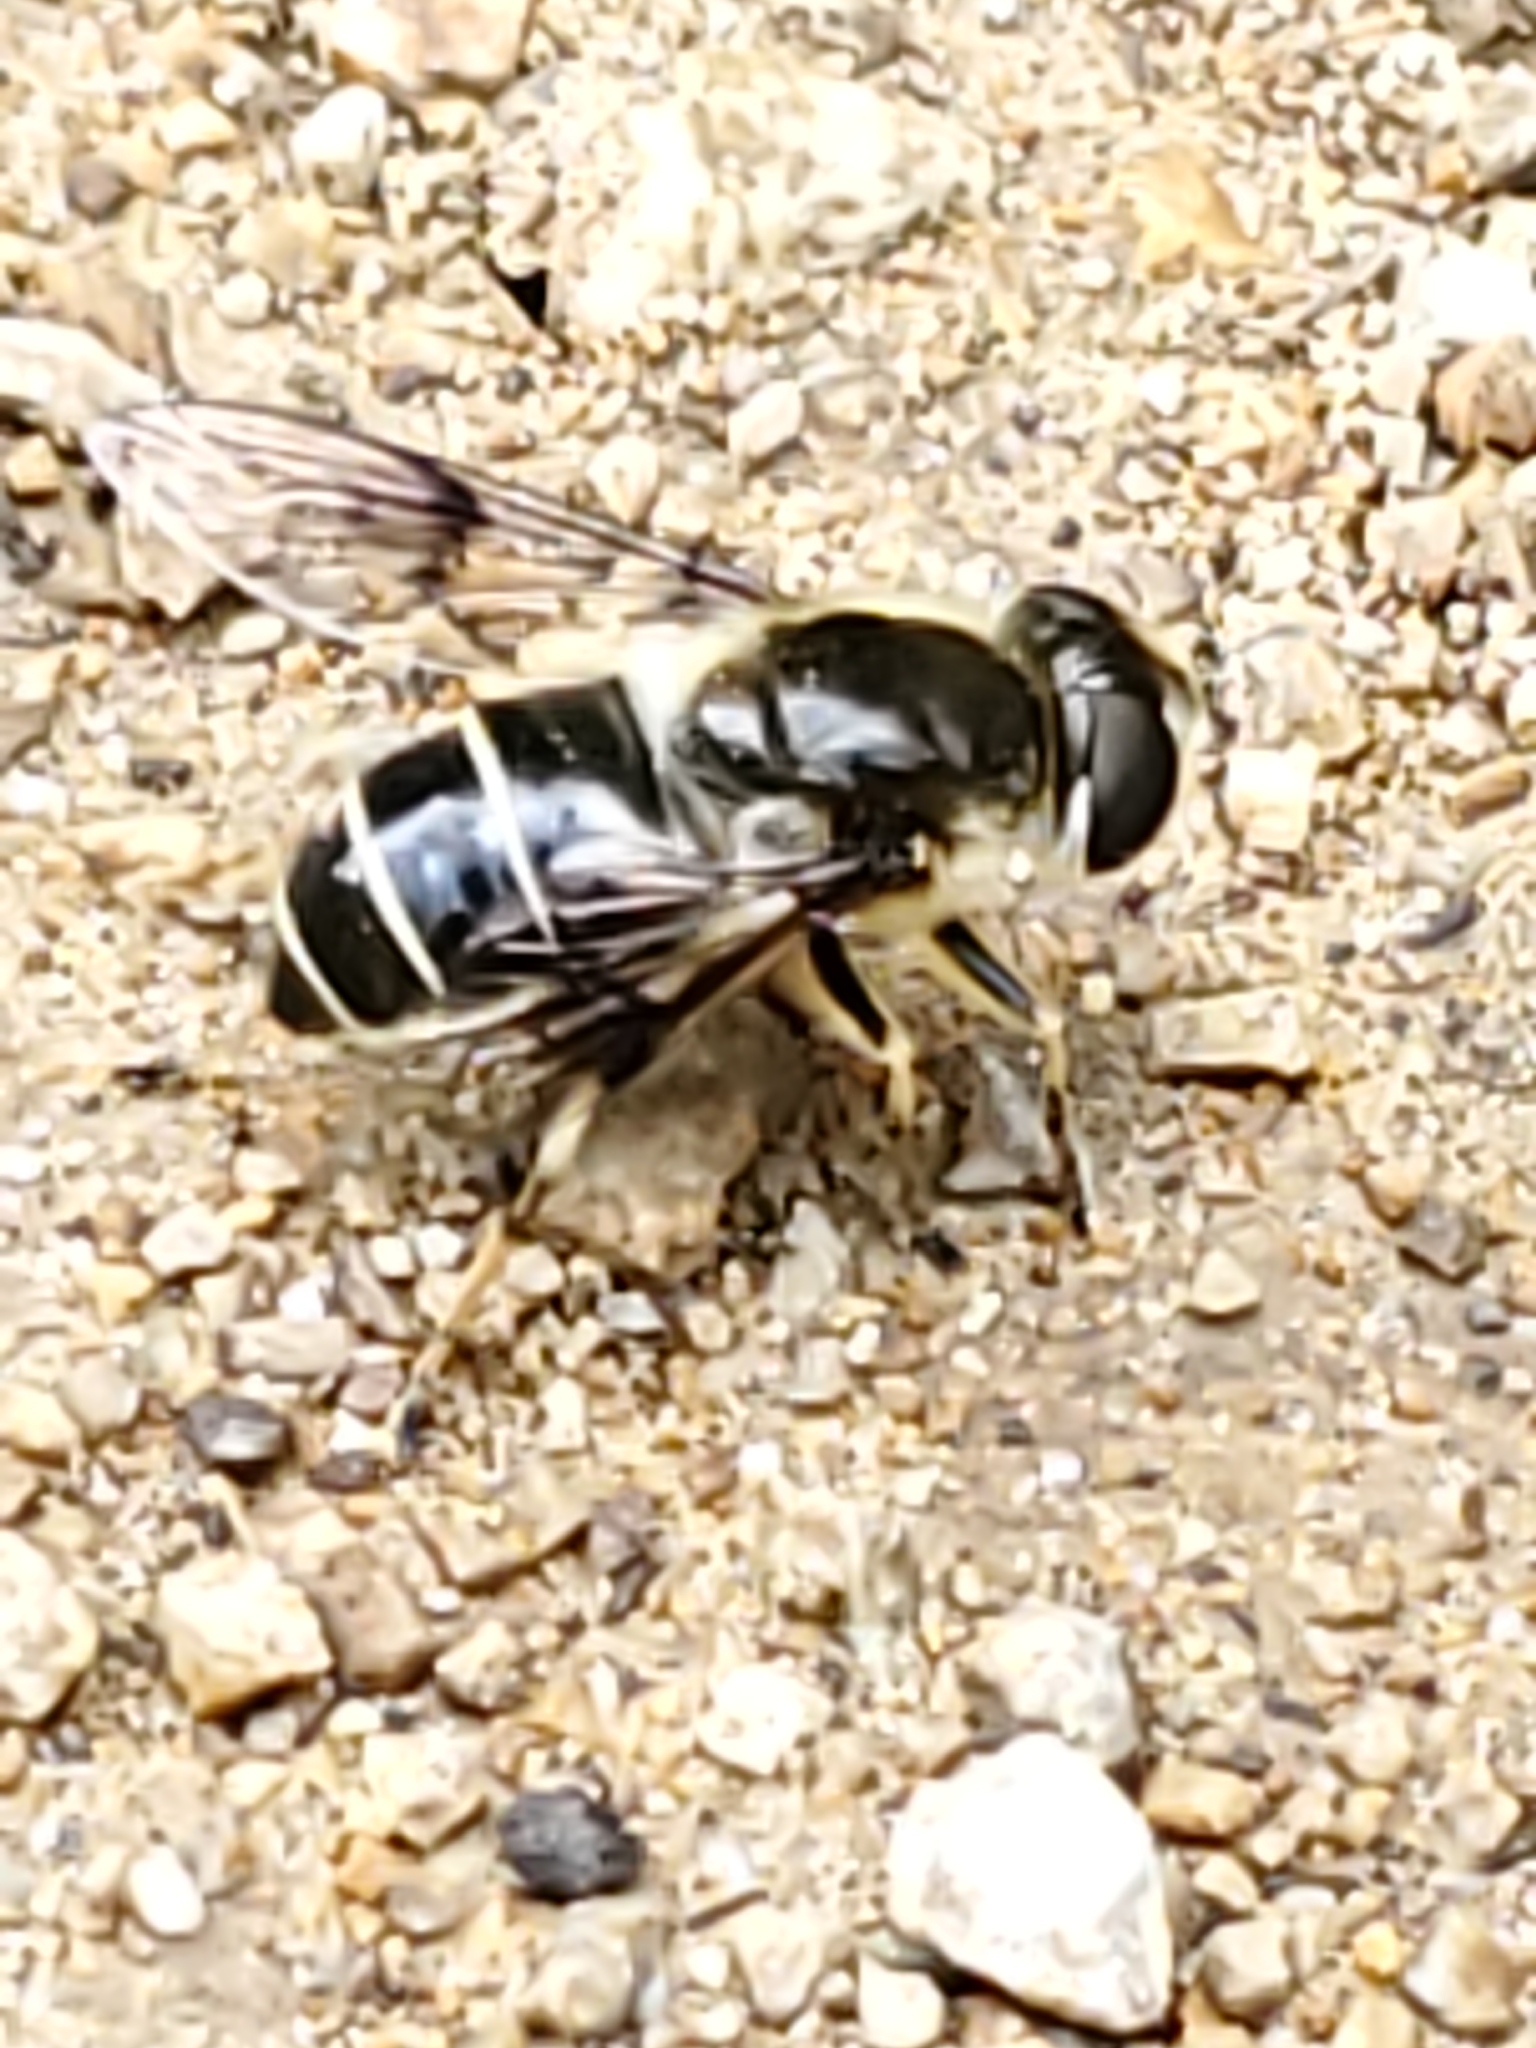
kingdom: Animalia
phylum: Arthropoda
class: Insecta
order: Diptera
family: Syrphidae
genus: Eristalis
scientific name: Eristalis rupium
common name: Hover fly
